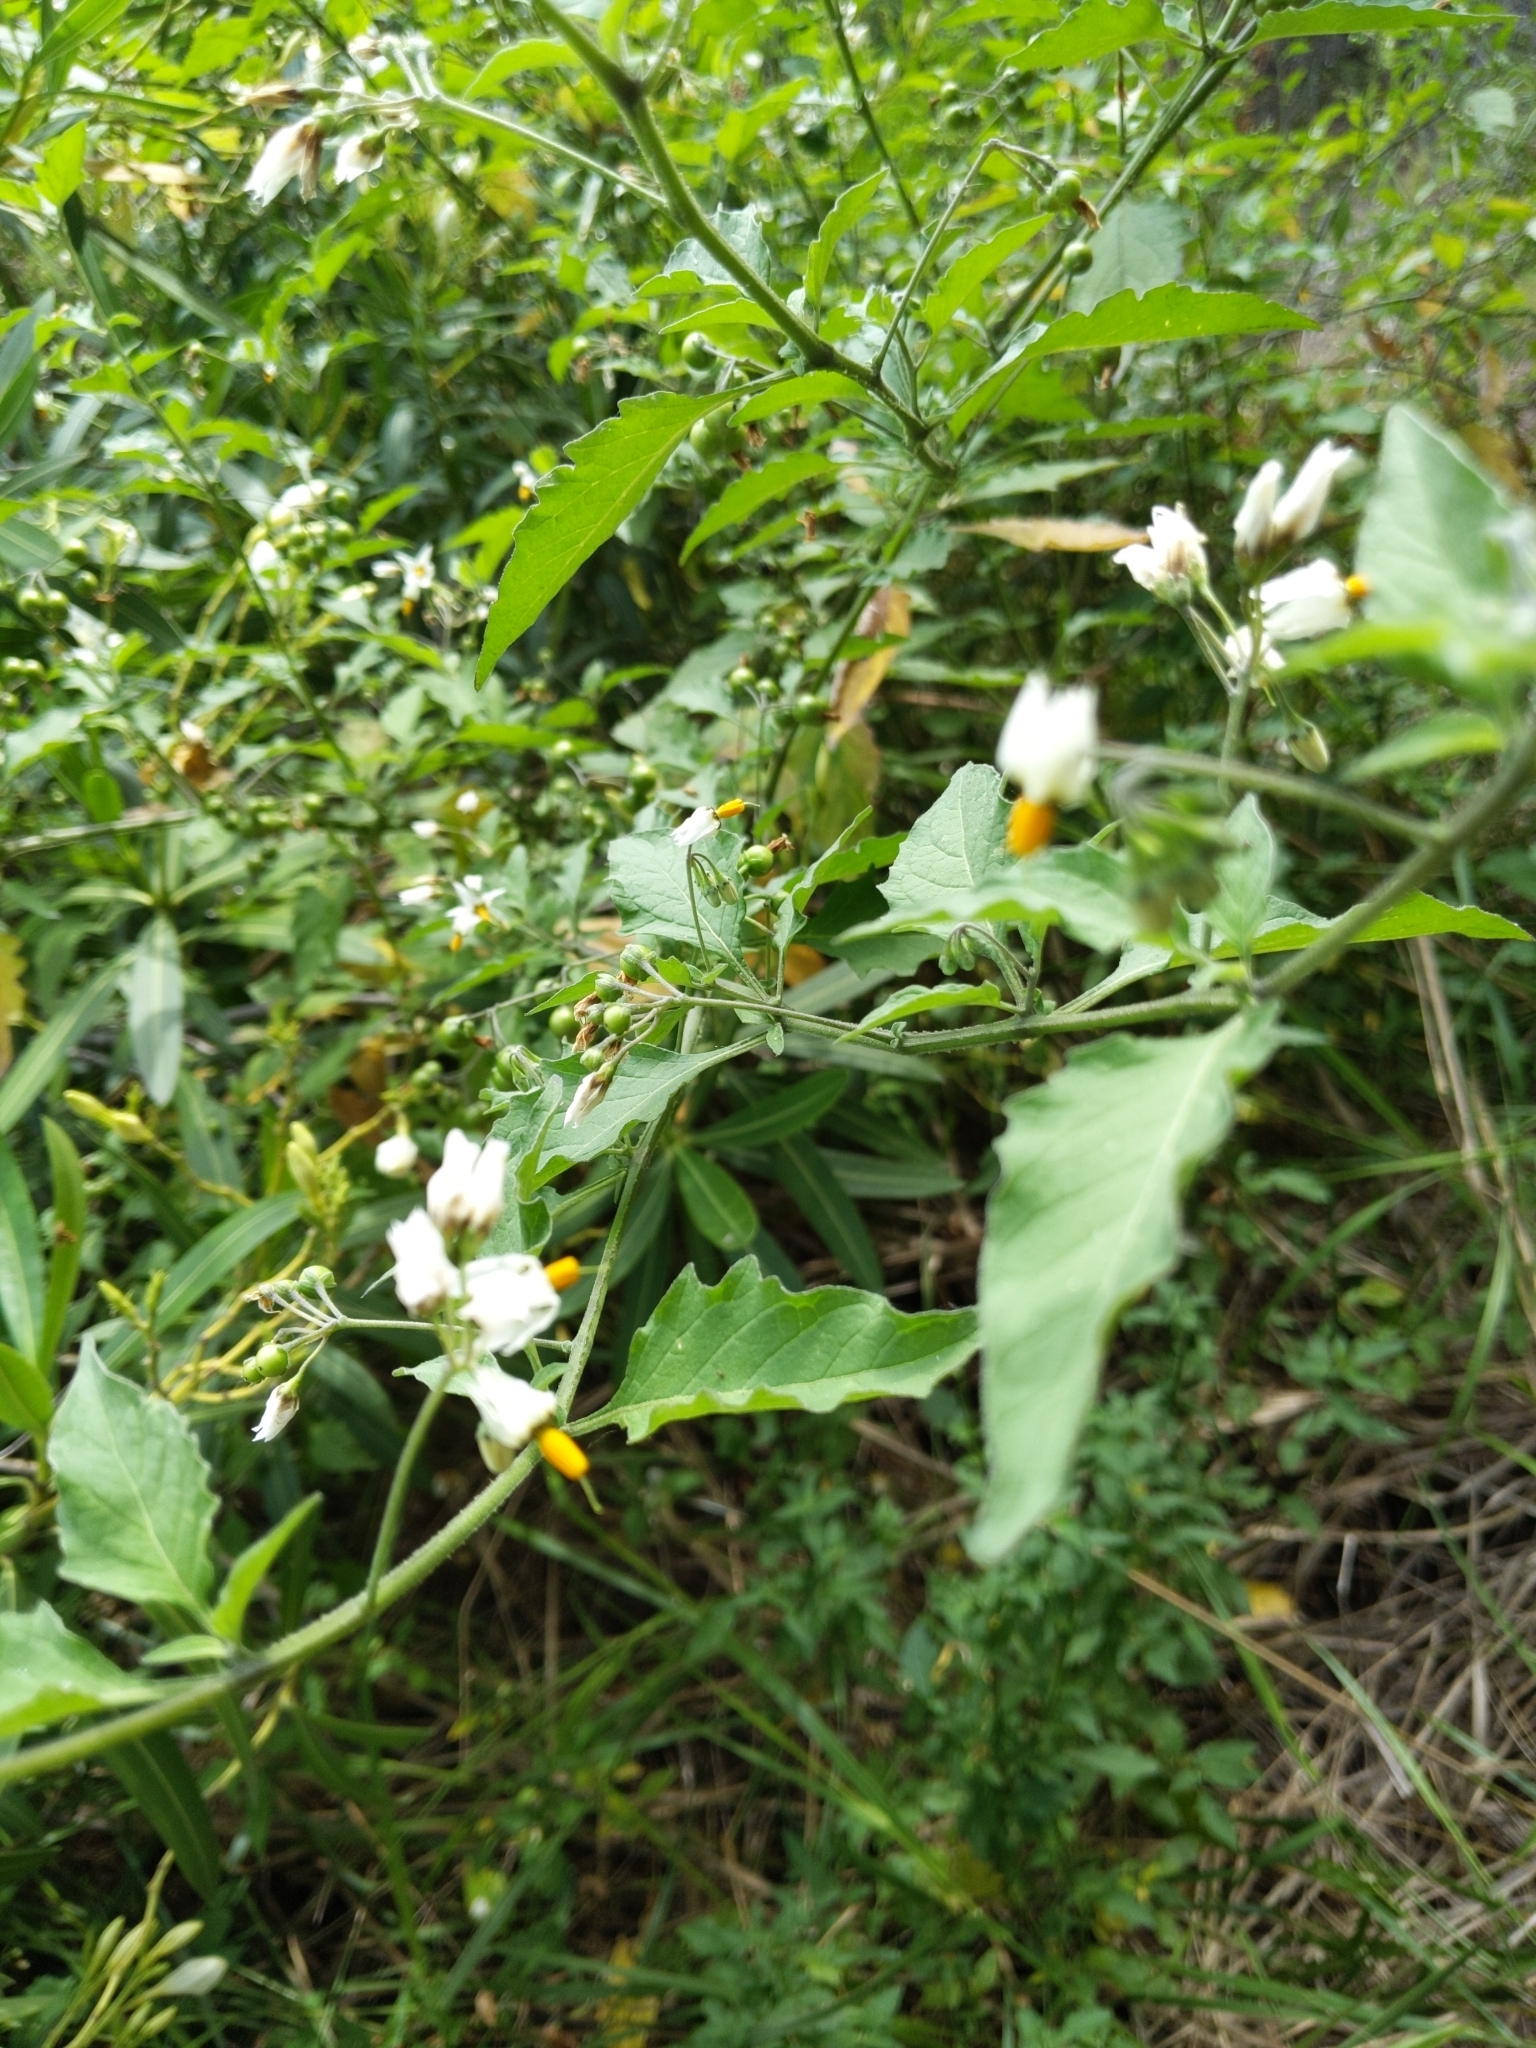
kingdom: Plantae
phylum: Tracheophyta
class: Magnoliopsida
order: Solanales
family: Solanaceae
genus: Solanum
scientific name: Solanum douglasii
